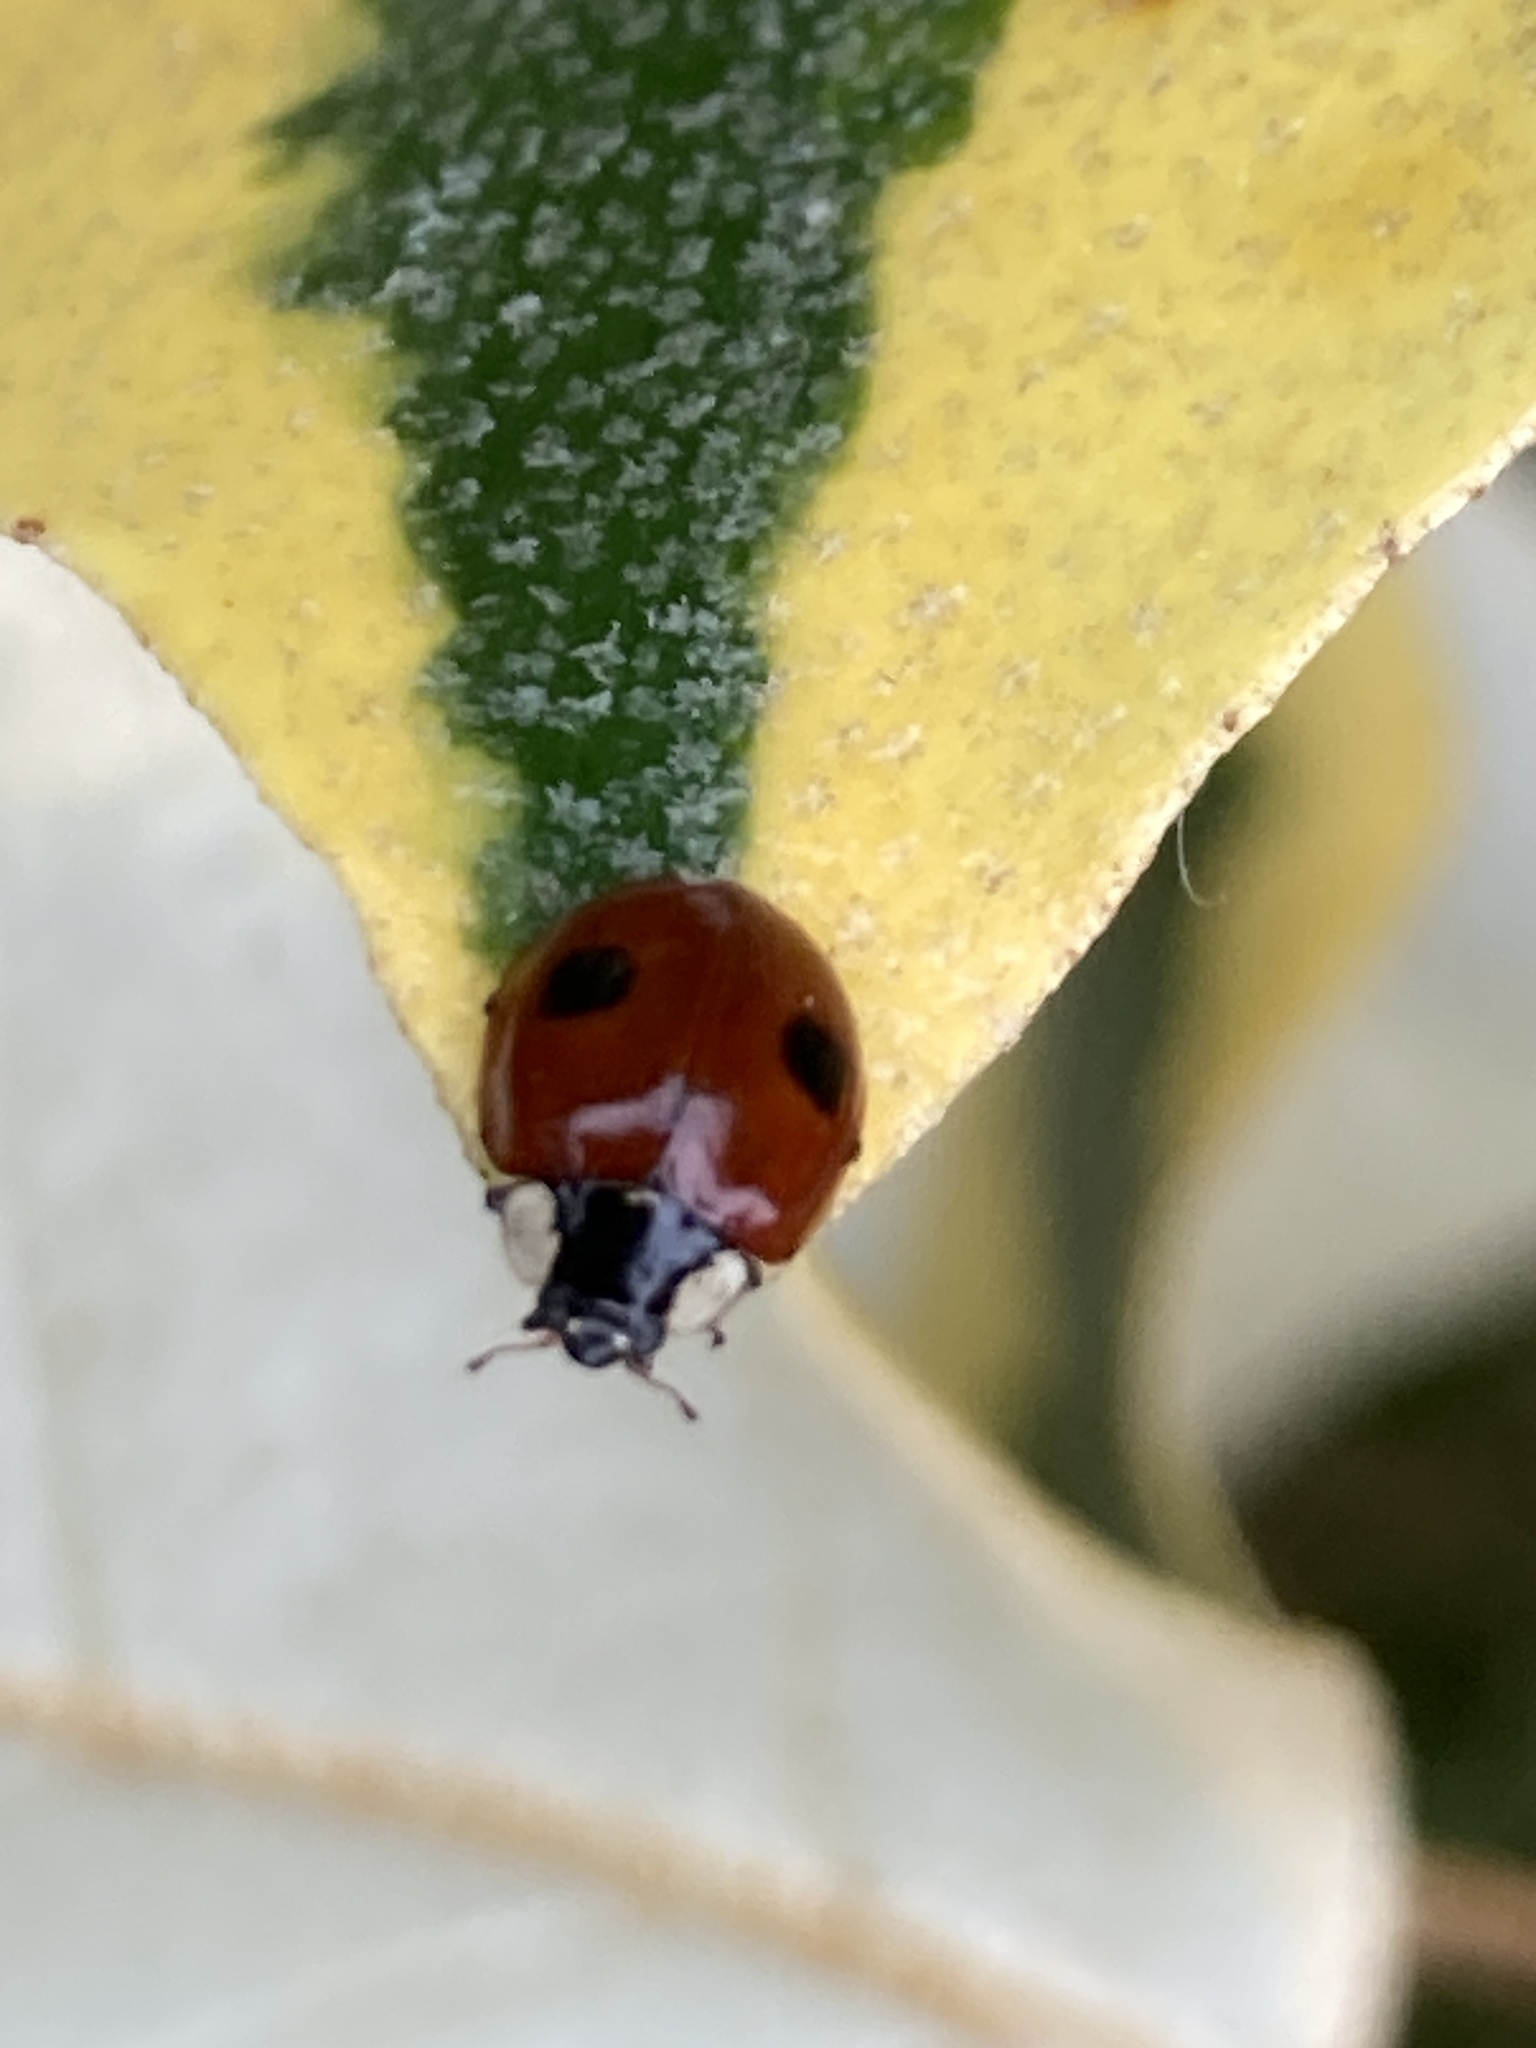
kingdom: Animalia
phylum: Arthropoda
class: Insecta
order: Coleoptera
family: Coccinellidae
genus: Adalia
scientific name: Adalia bipunctata
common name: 2-spot ladybird
